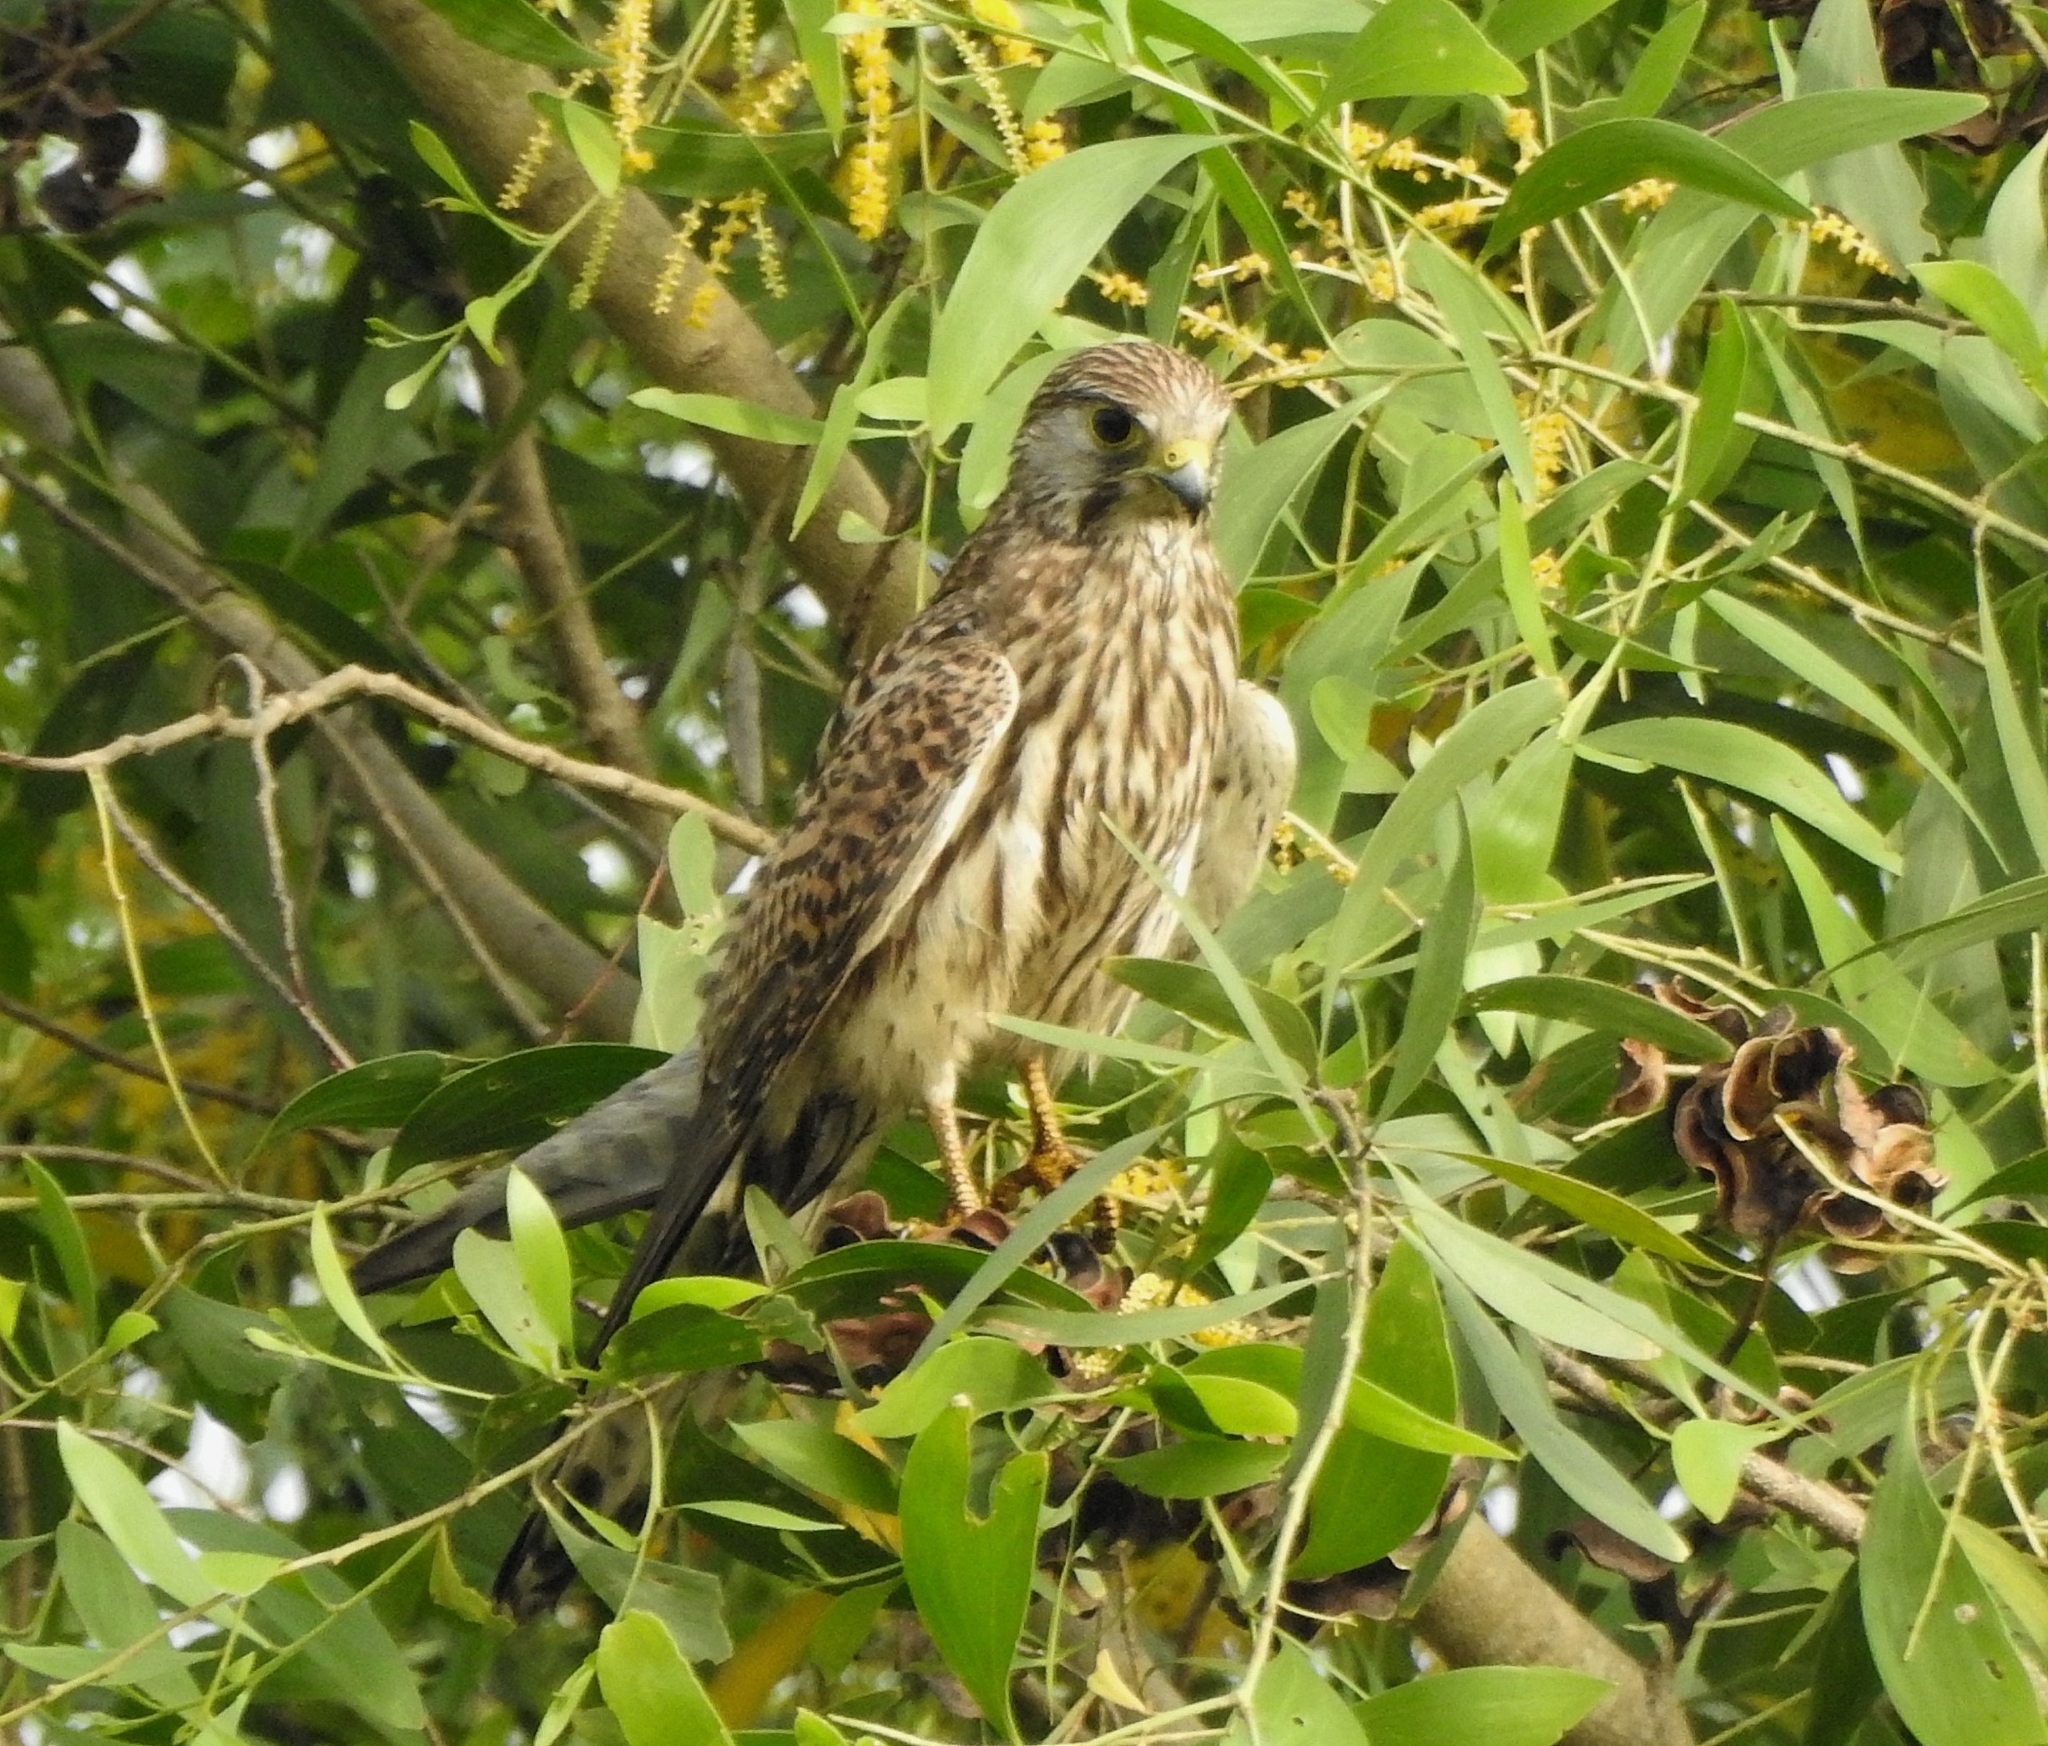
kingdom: Animalia
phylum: Chordata
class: Aves
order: Falconiformes
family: Falconidae
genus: Falco
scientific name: Falco tinnunculus
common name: Common kestrel
